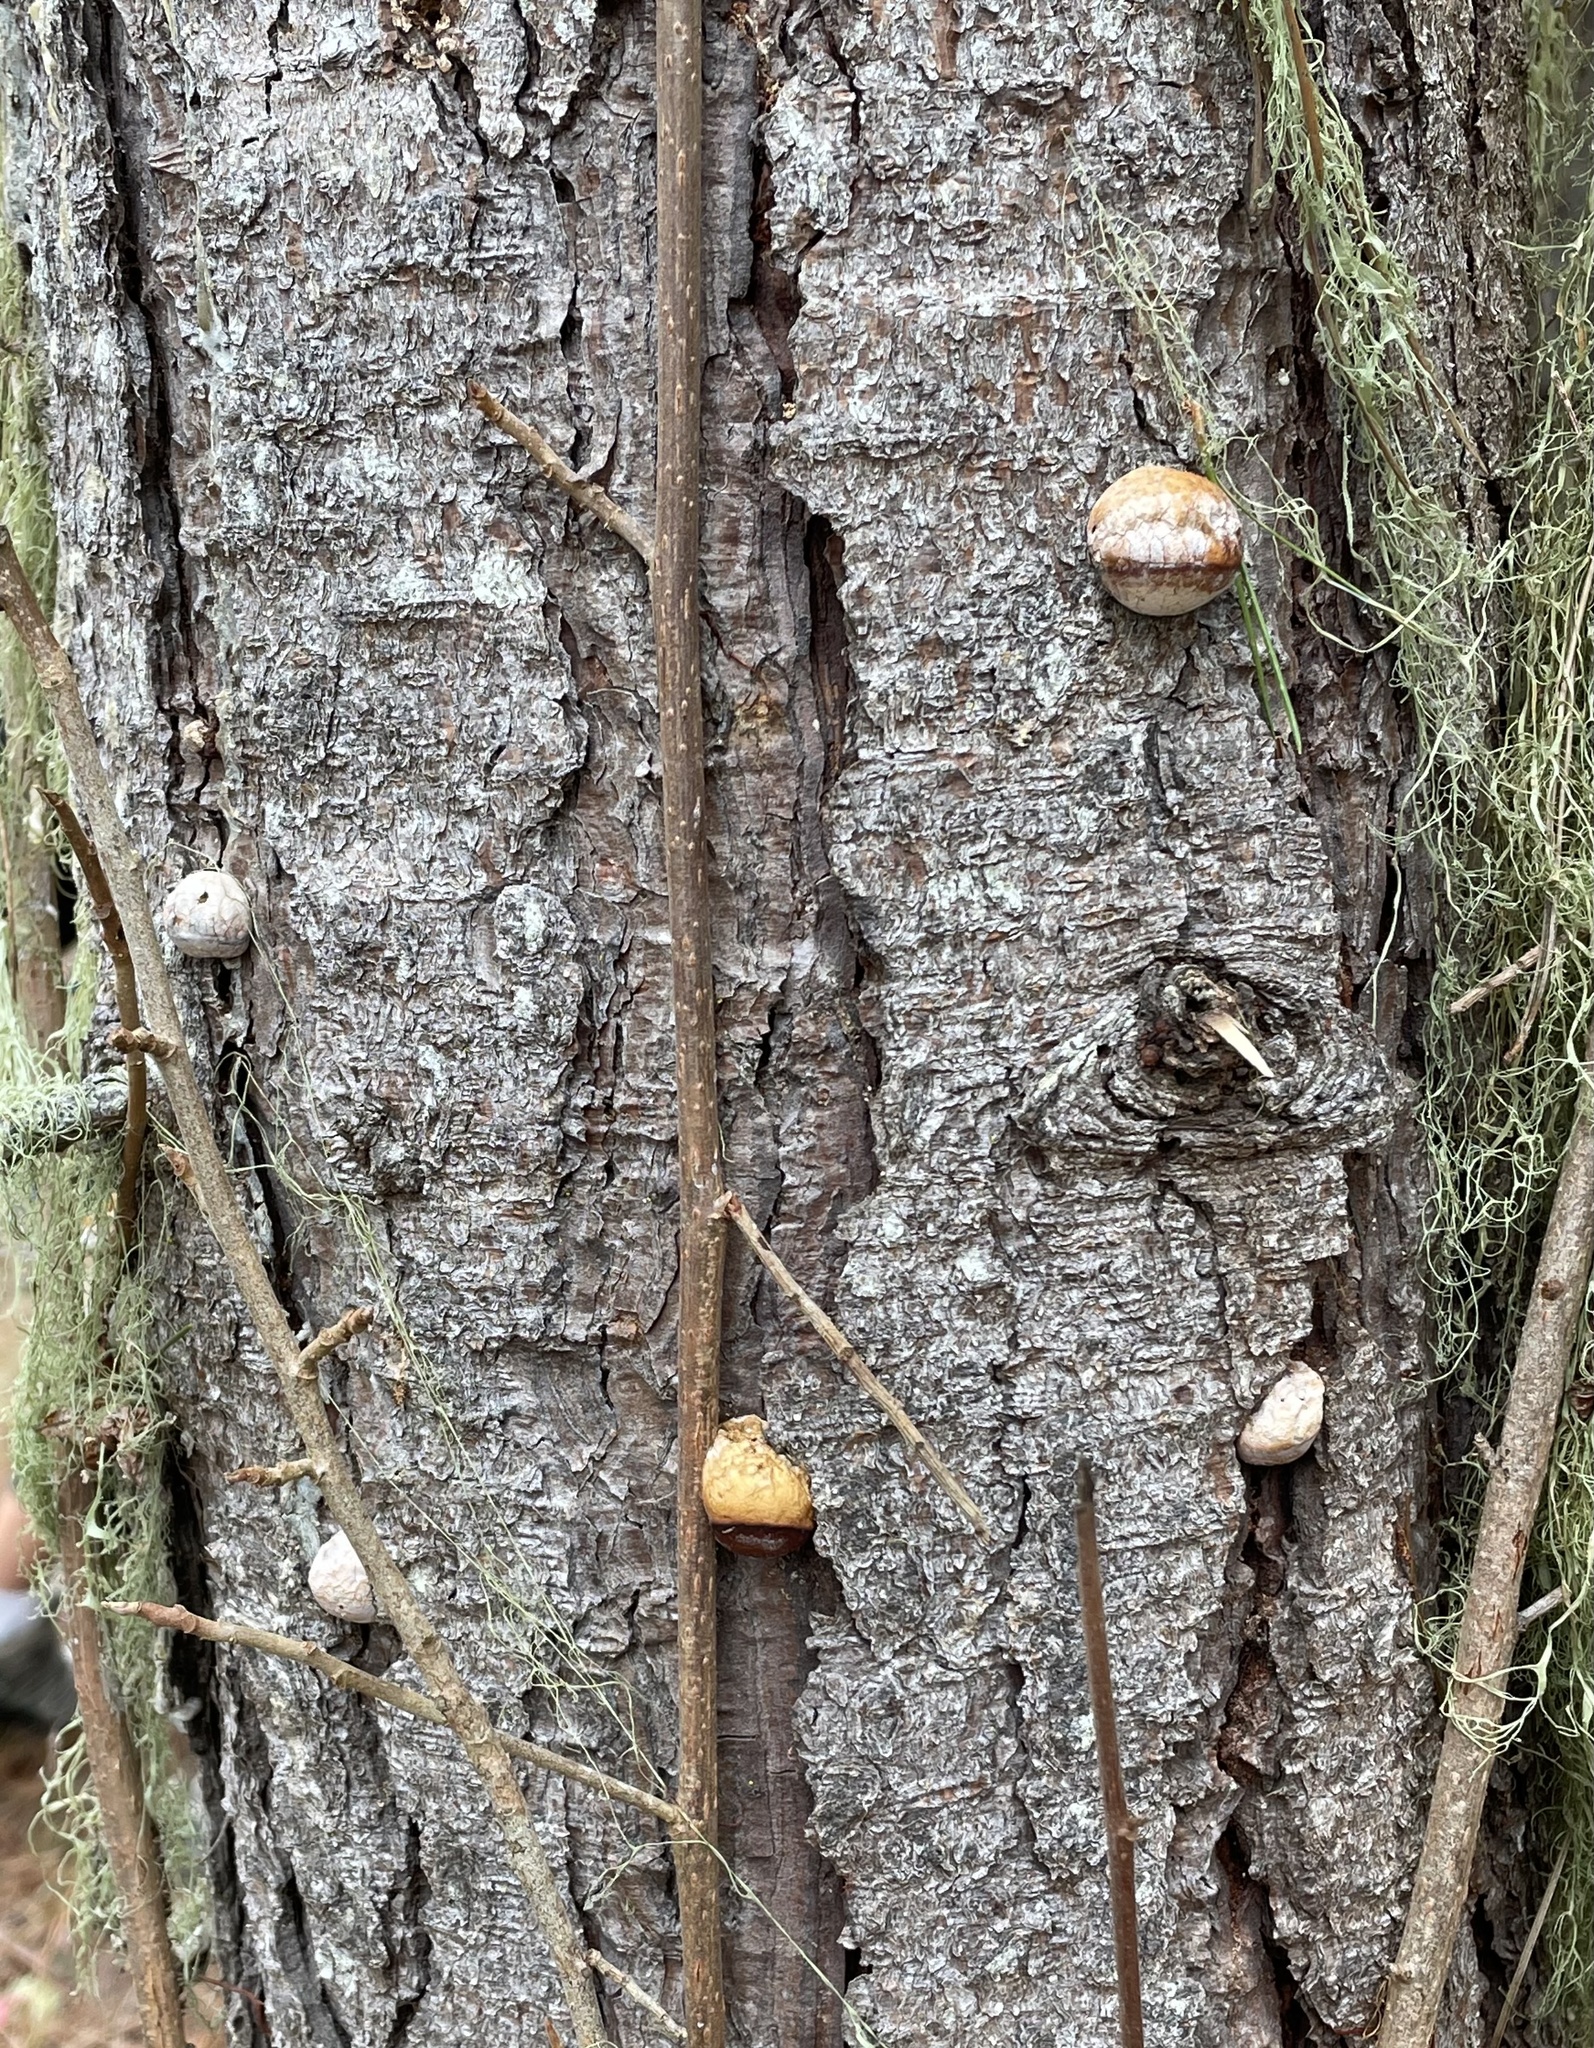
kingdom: Fungi
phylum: Basidiomycota
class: Agaricomycetes
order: Polyporales
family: Polyporaceae
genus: Cryptoporus
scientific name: Cryptoporus volvatus
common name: Veiled polypore
